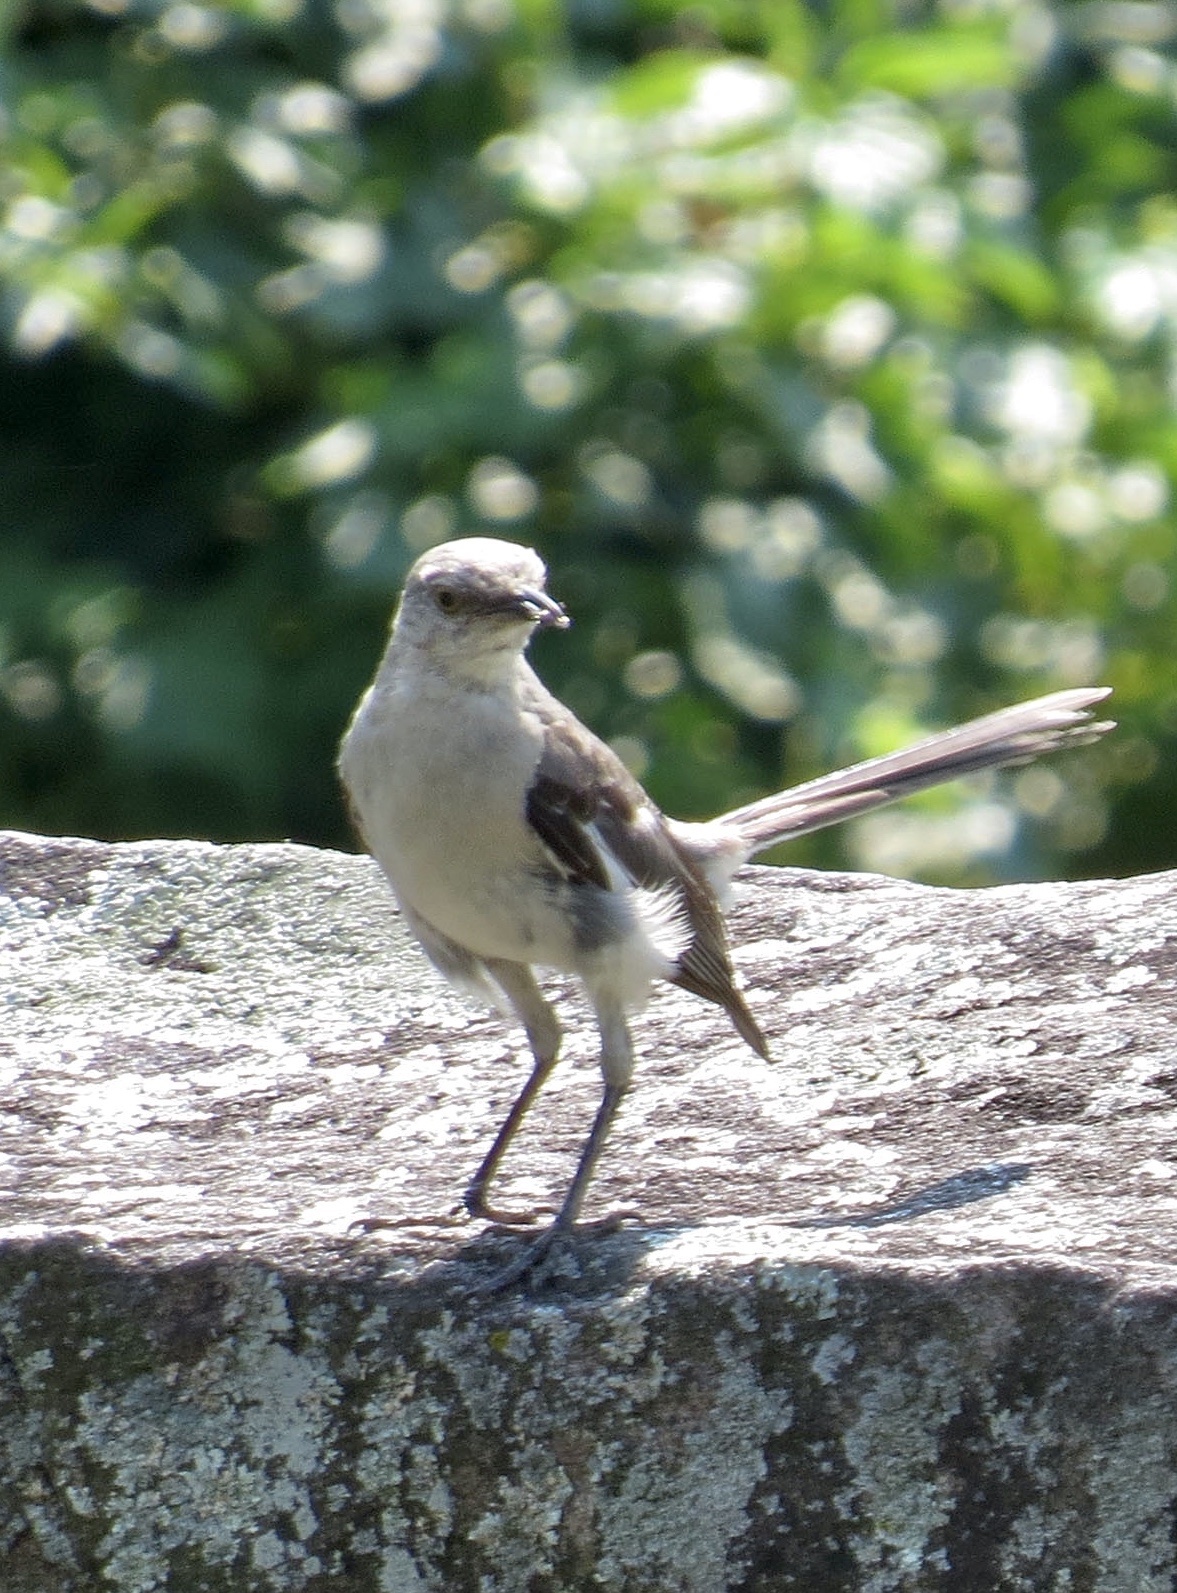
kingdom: Animalia
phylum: Chordata
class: Aves
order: Passeriformes
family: Mimidae
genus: Mimus
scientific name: Mimus polyglottos
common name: Northern mockingbird
